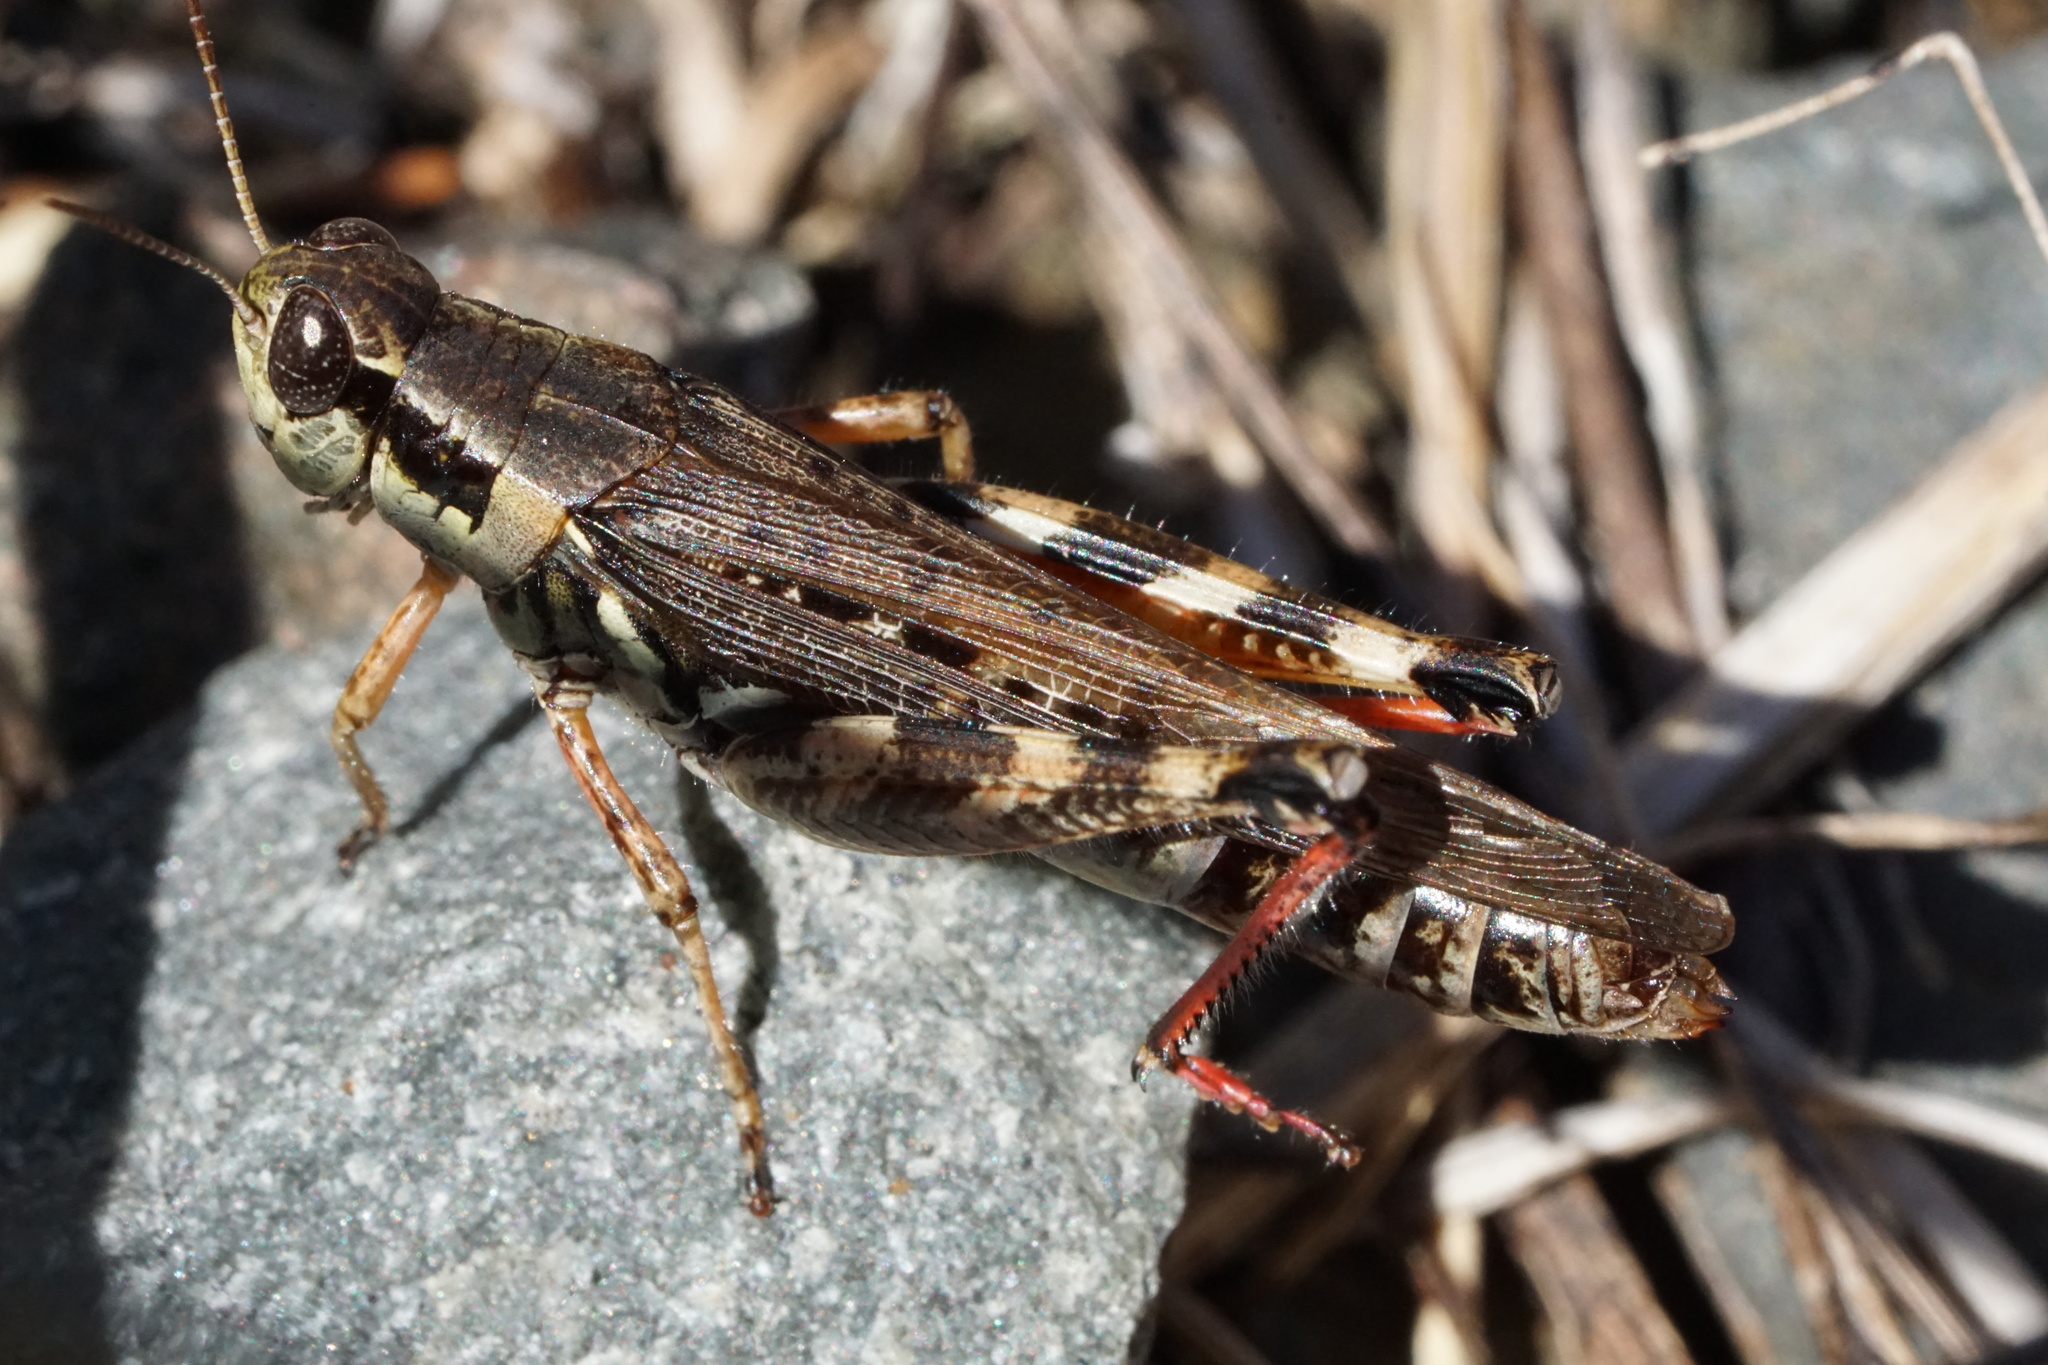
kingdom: Animalia
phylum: Arthropoda
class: Insecta
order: Orthoptera
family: Acrididae
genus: Melanoplus
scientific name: Melanoplus sanguinipes
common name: Migratory grasshopper
